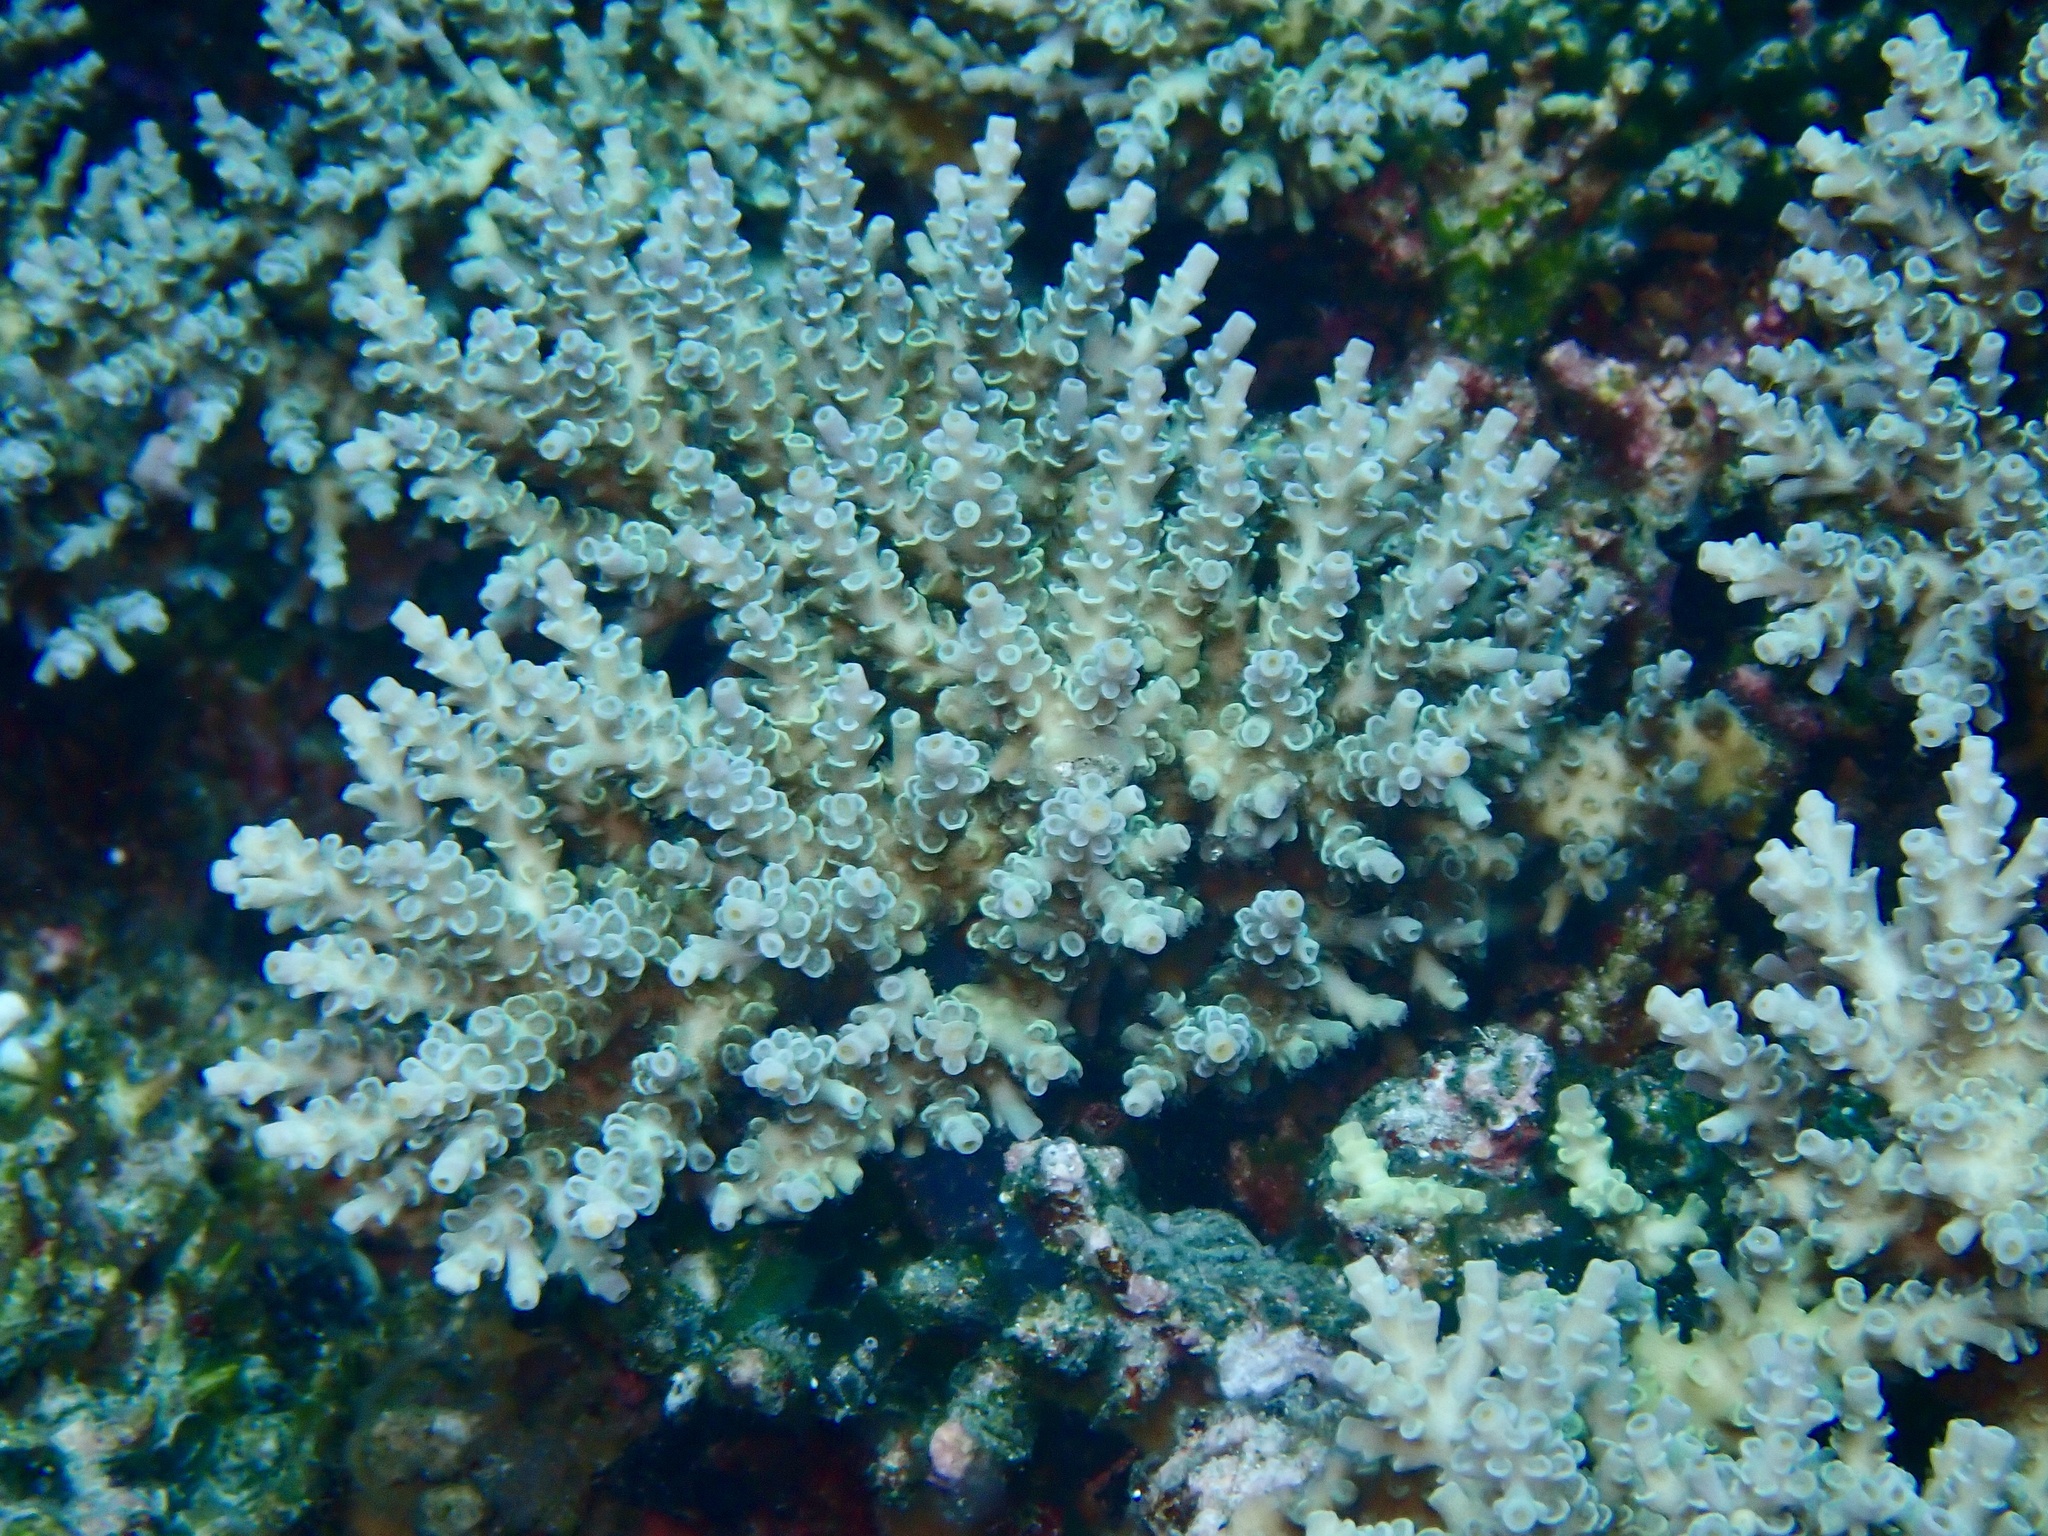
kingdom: Animalia
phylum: Cnidaria
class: Anthozoa
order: Scleractinia
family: Acroporidae
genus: Acropora
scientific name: Acropora tenuis
